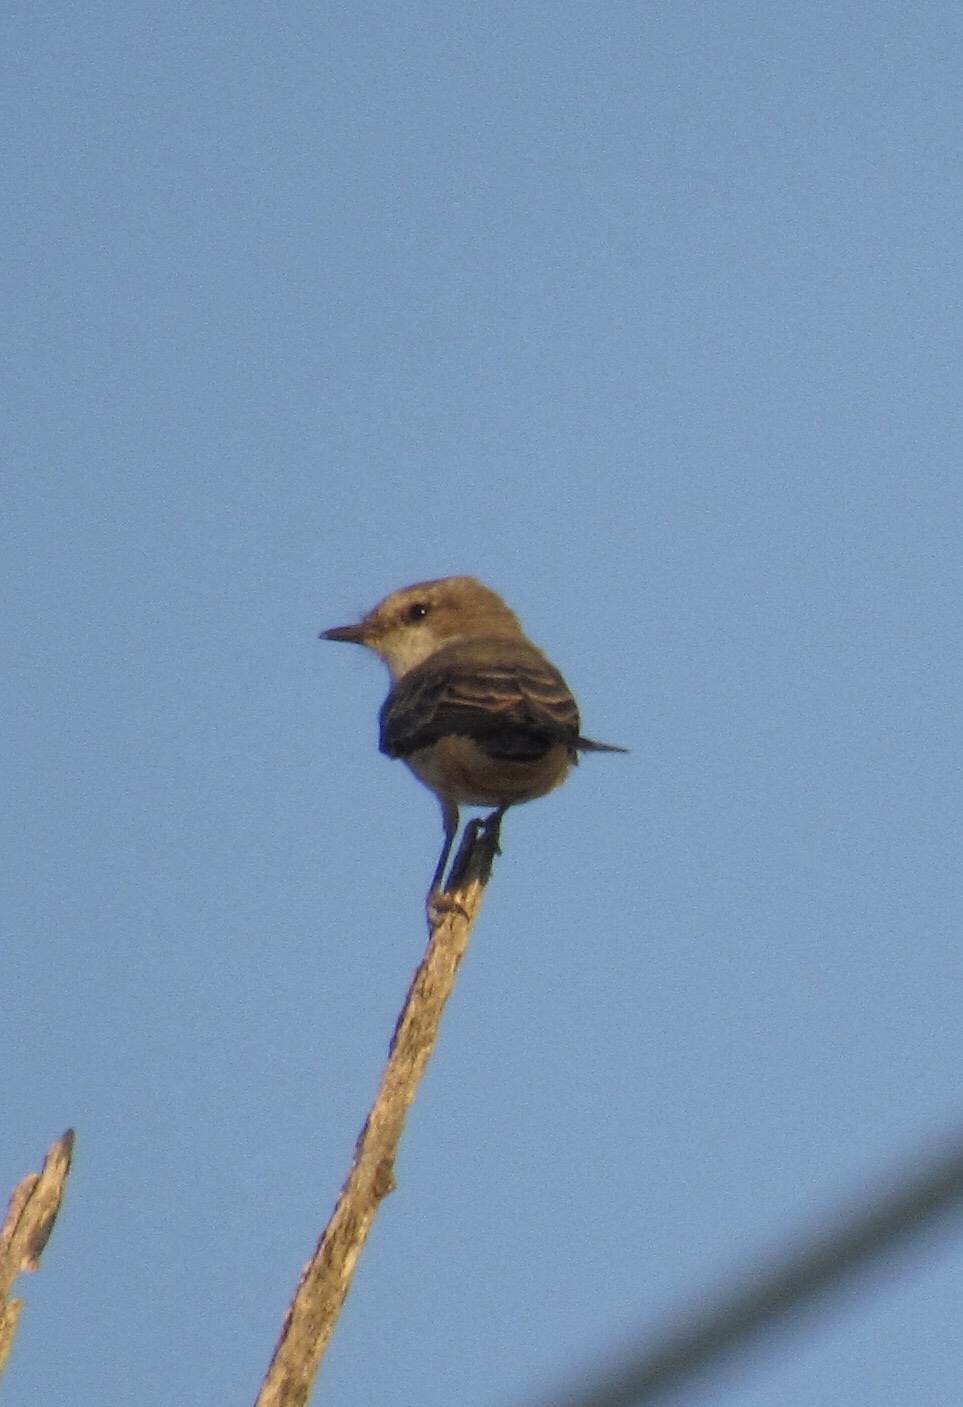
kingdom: Animalia
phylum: Chordata
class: Aves
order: Passeriformes
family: Tyrannidae
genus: Pyrocephalus
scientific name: Pyrocephalus rubinus
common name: Vermilion flycatcher
